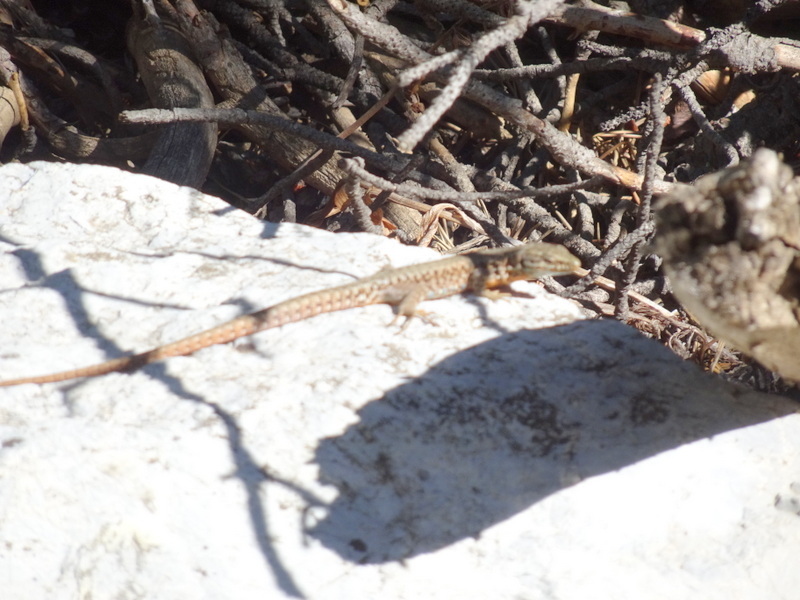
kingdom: Animalia
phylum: Chordata
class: Squamata
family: Lacertidae
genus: Podarcis
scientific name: Podarcis muralis
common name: Common wall lizard
